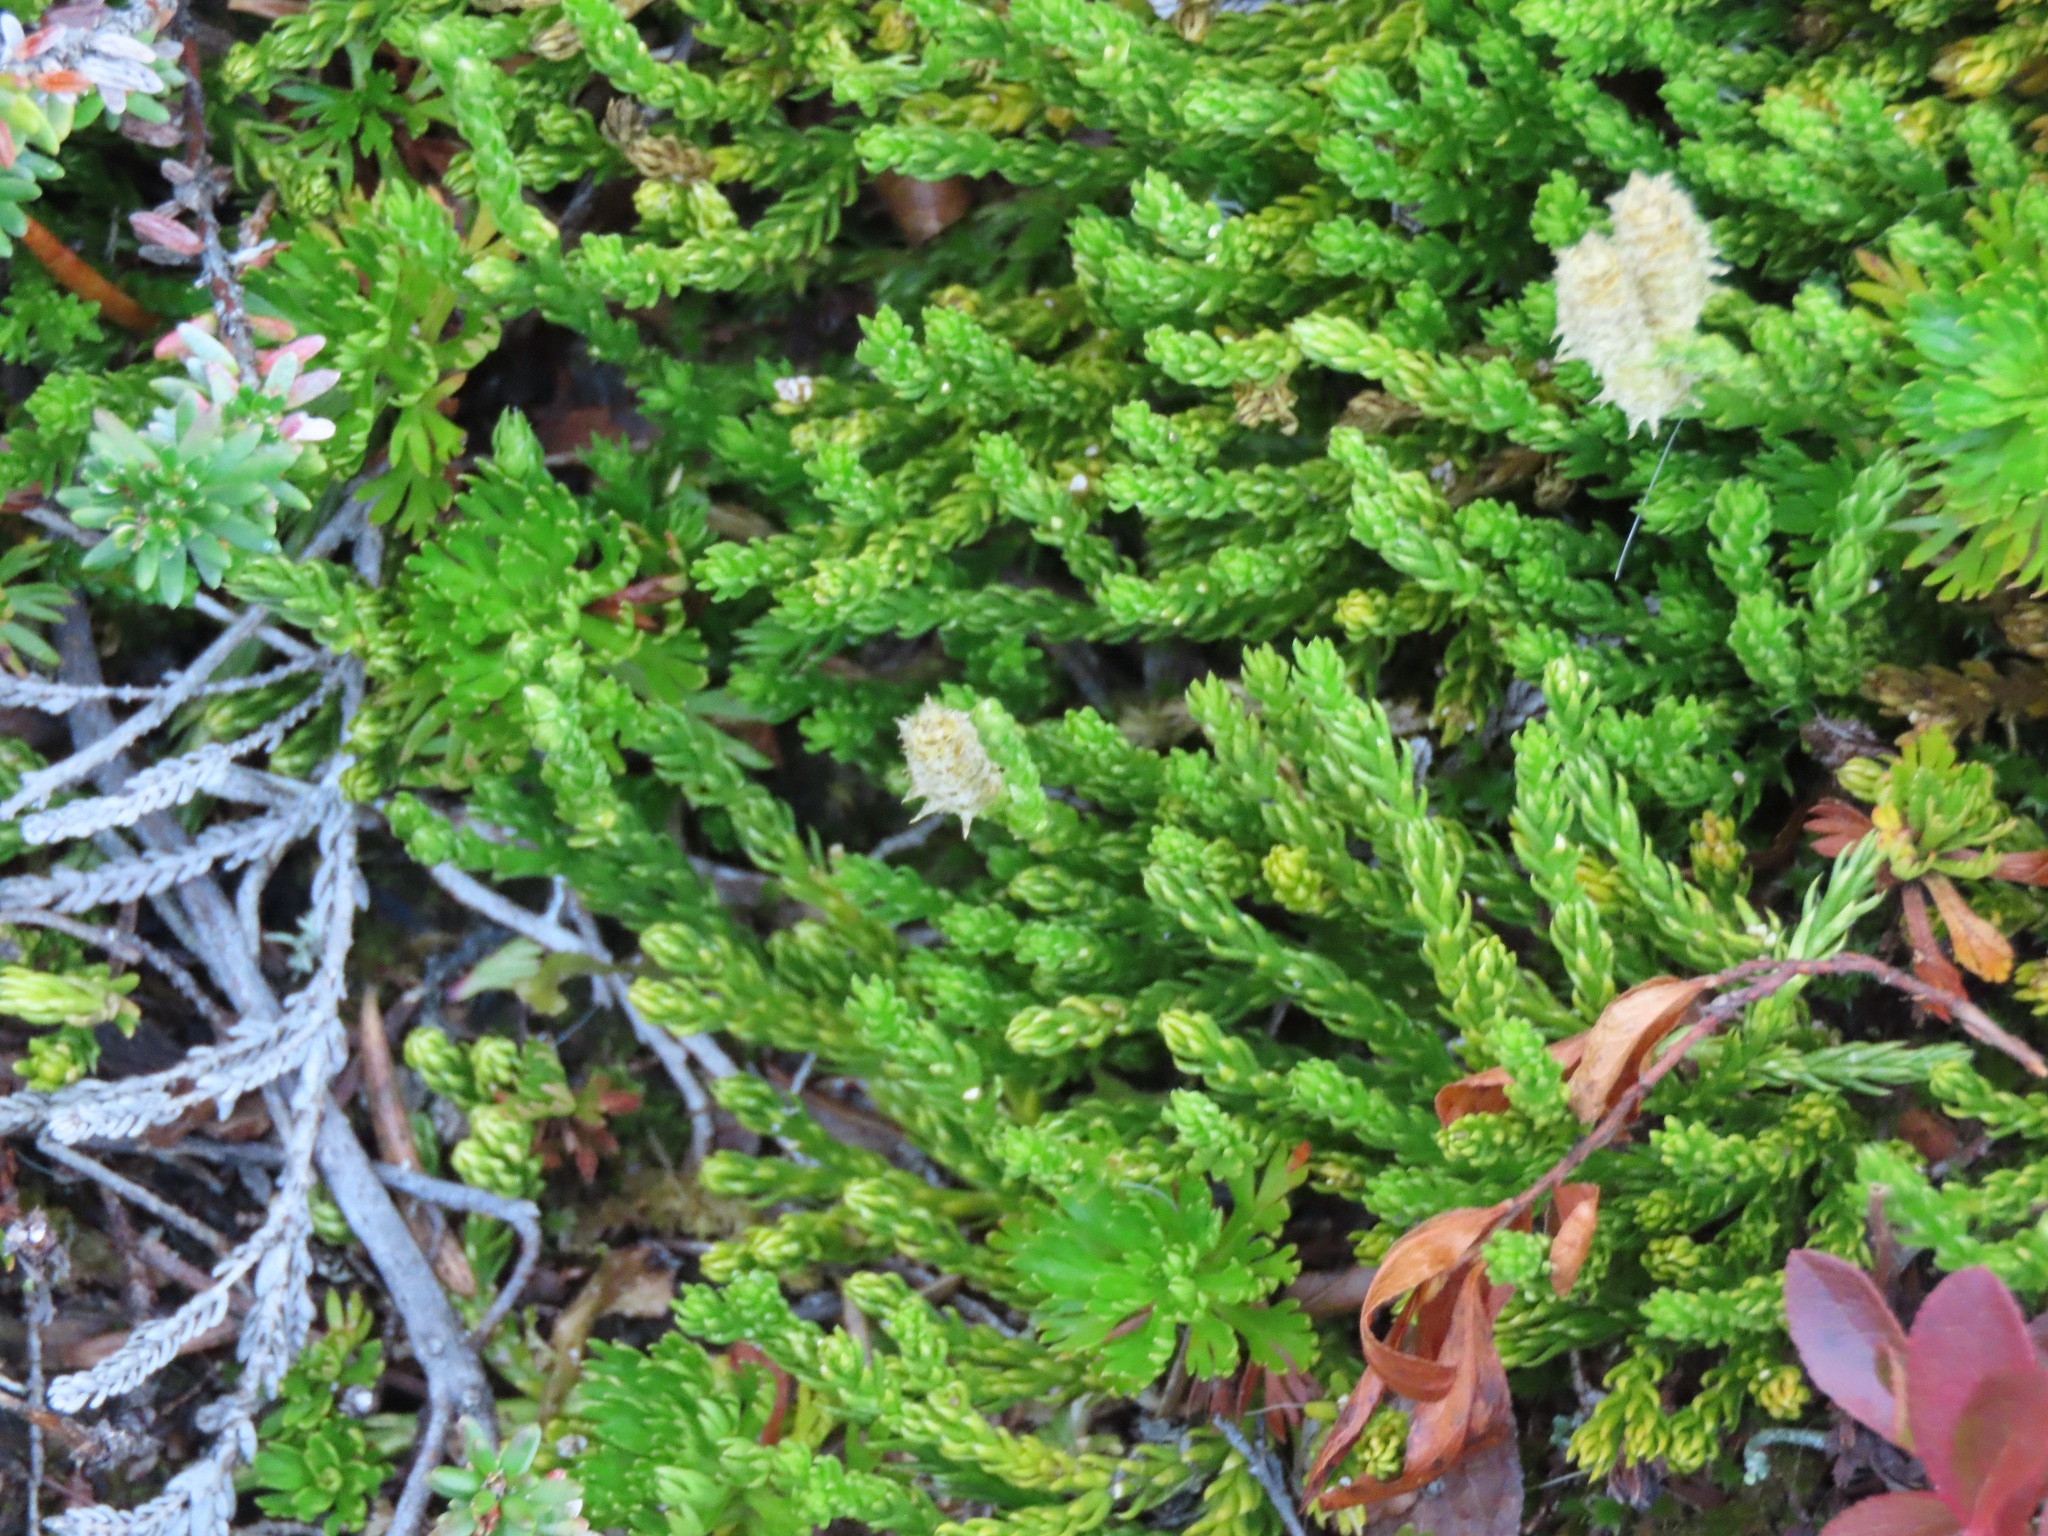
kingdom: Plantae
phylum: Tracheophyta
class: Lycopodiopsida
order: Lycopodiales
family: Lycopodiaceae
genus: Diphasiastrum
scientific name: Diphasiastrum sitchense
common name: Alaska clubmoss
